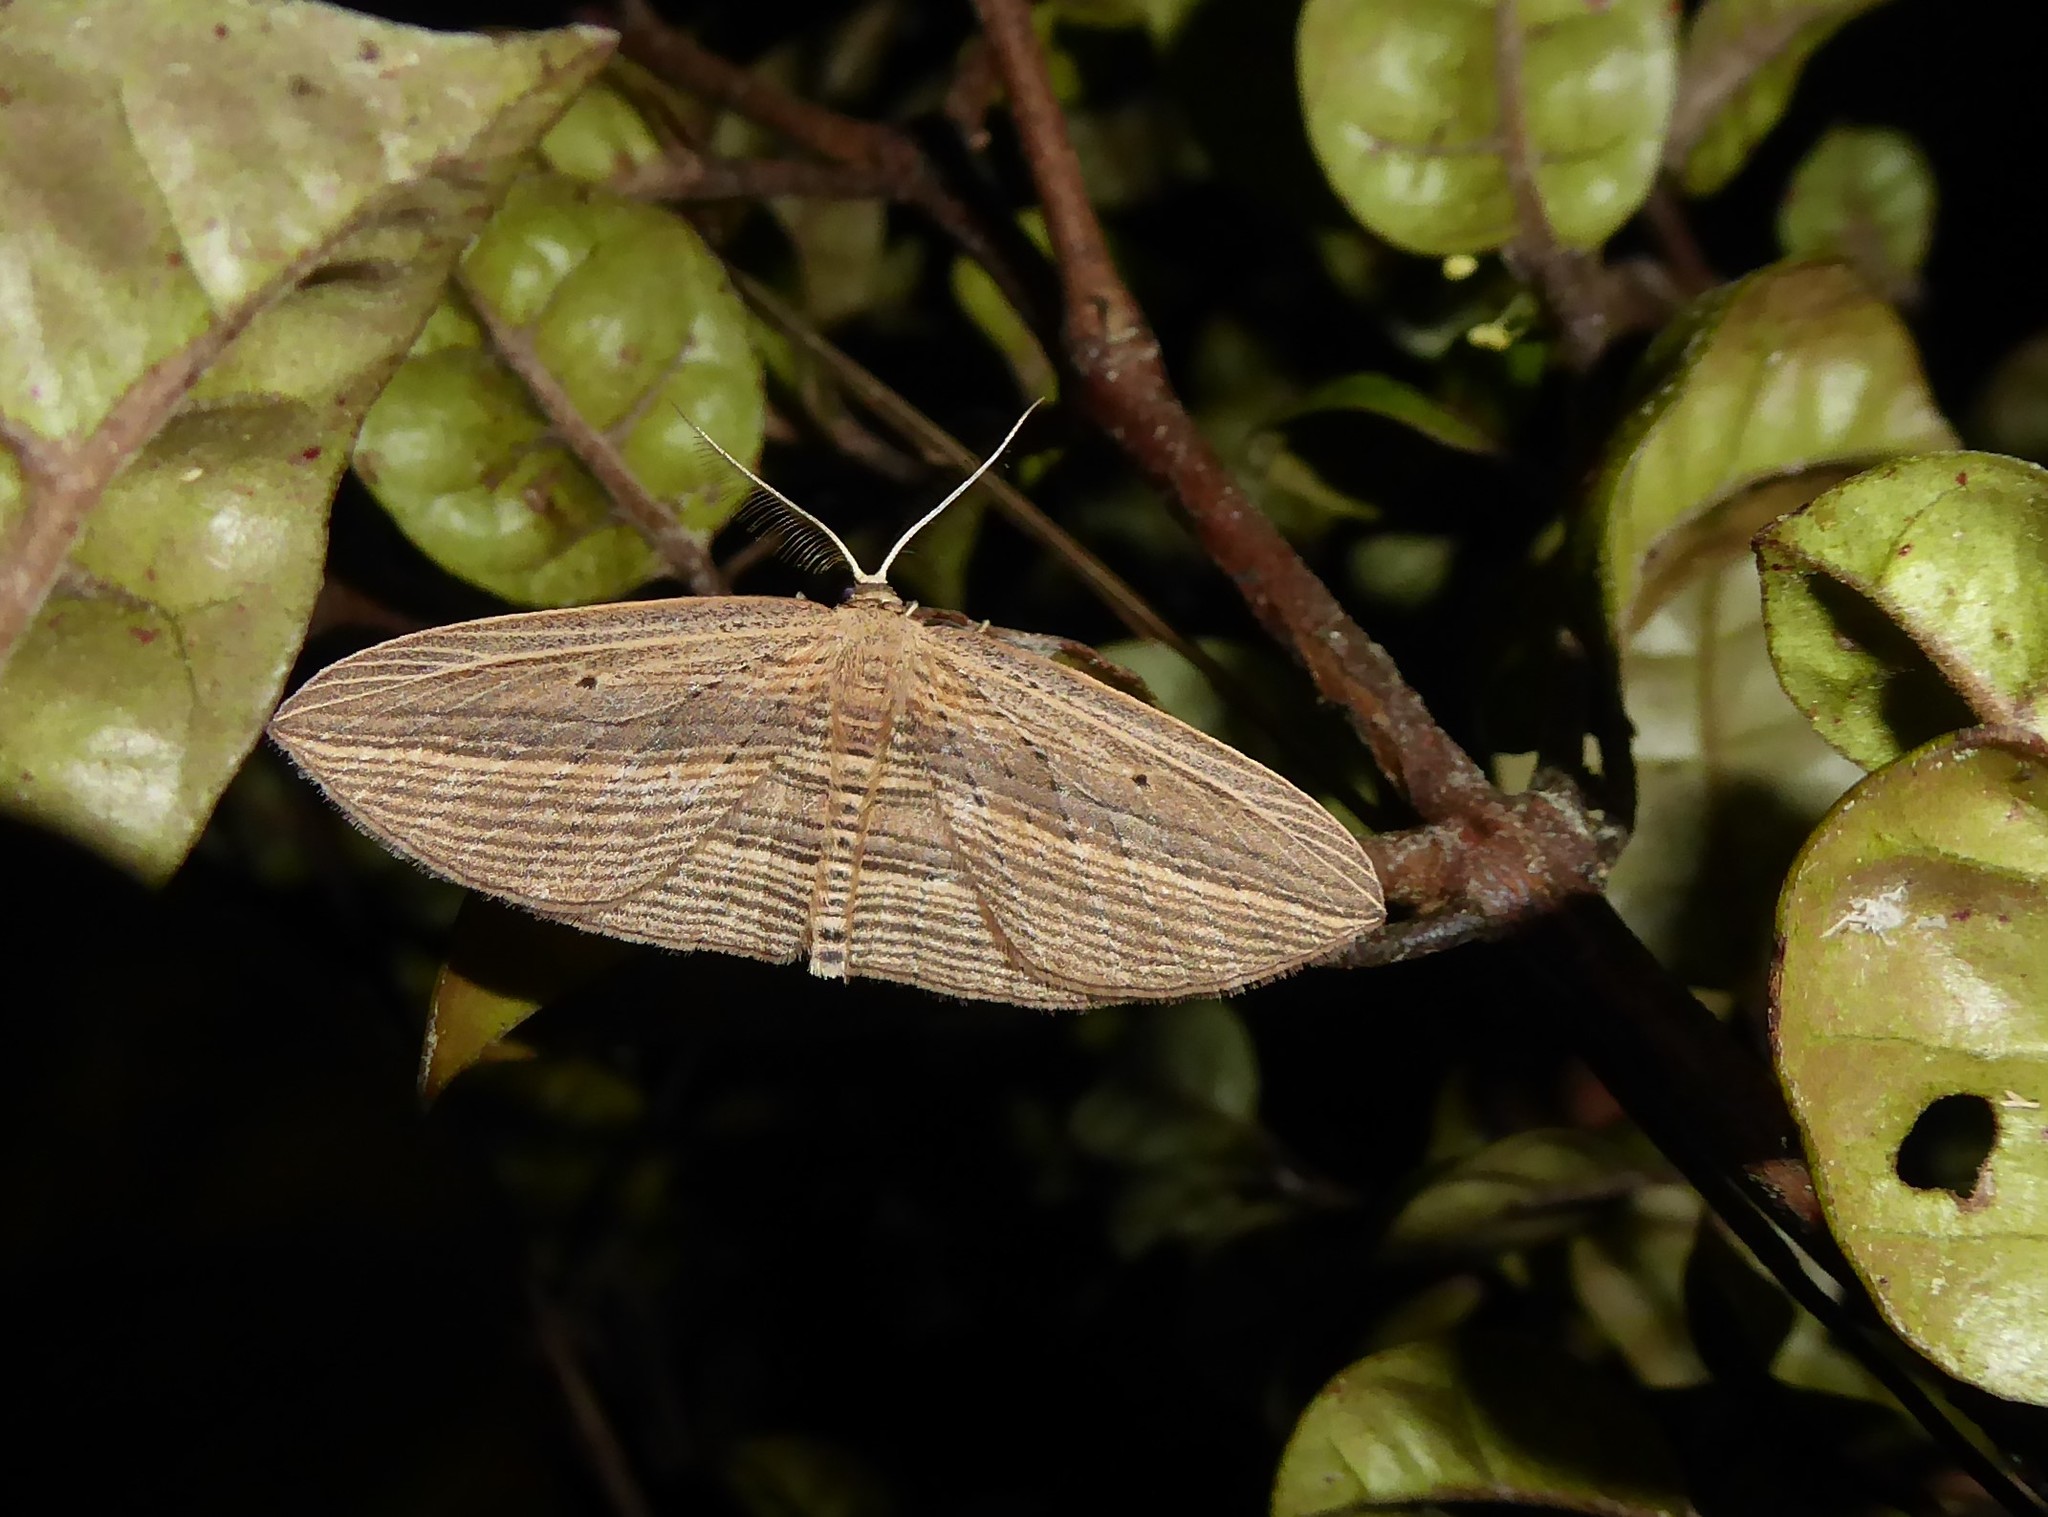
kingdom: Animalia
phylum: Arthropoda
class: Insecta
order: Lepidoptera
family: Geometridae
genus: Epiphryne
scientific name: Epiphryne verriculata
